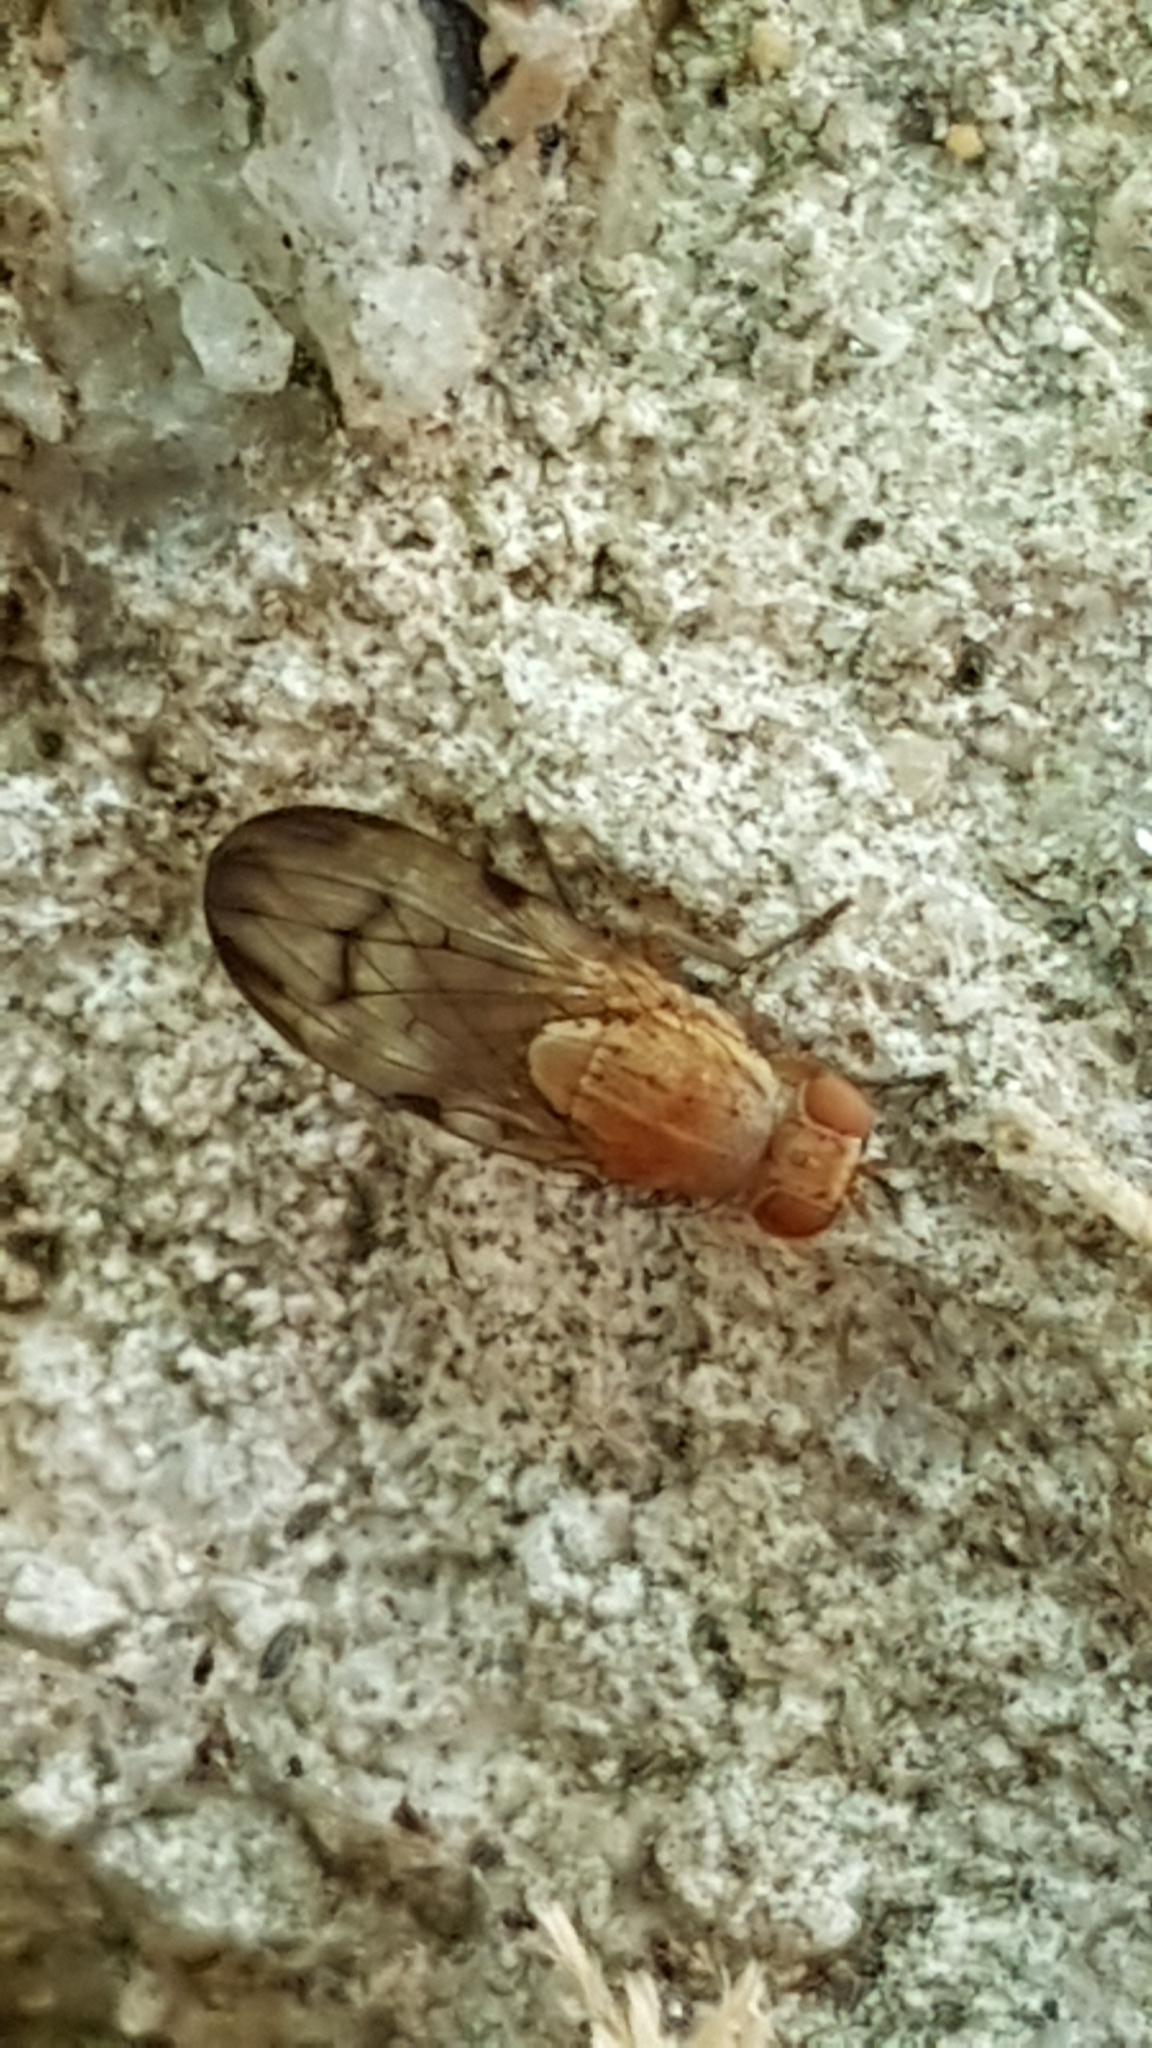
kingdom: Animalia
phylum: Arthropoda
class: Insecta
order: Diptera
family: Lauxaniidae
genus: Minettia
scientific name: Minettia inusta
